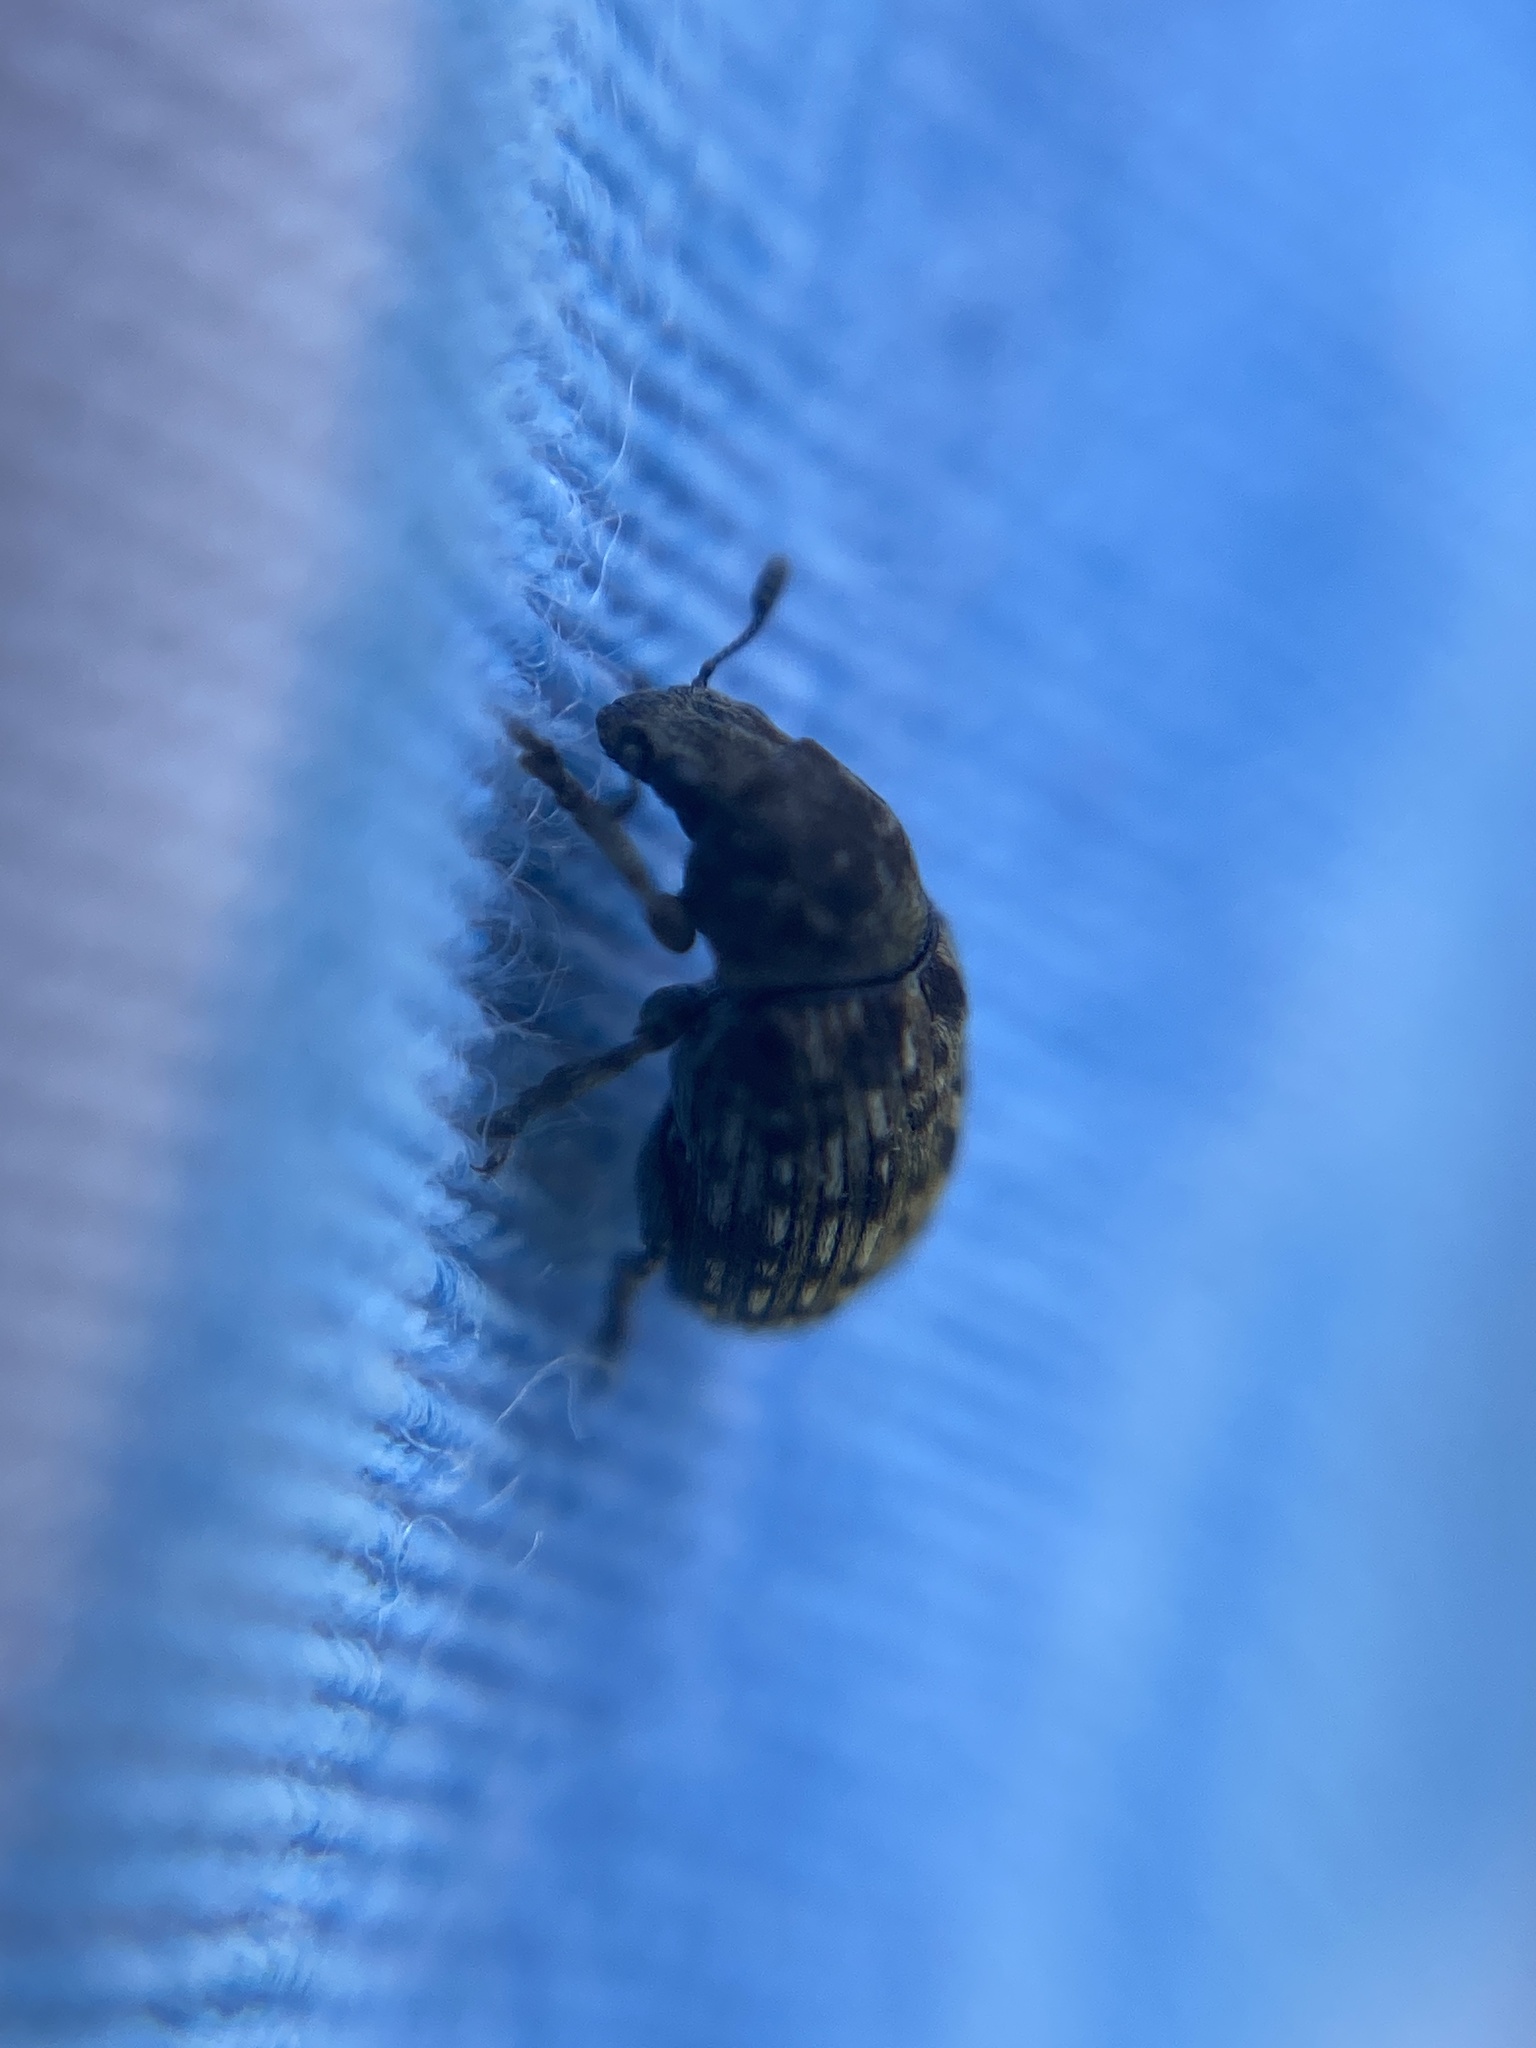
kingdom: Animalia
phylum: Arthropoda
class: Insecta
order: Coleoptera
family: Anthribidae
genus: Anthribus
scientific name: Anthribus nebulosus
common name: Fungus weevil
